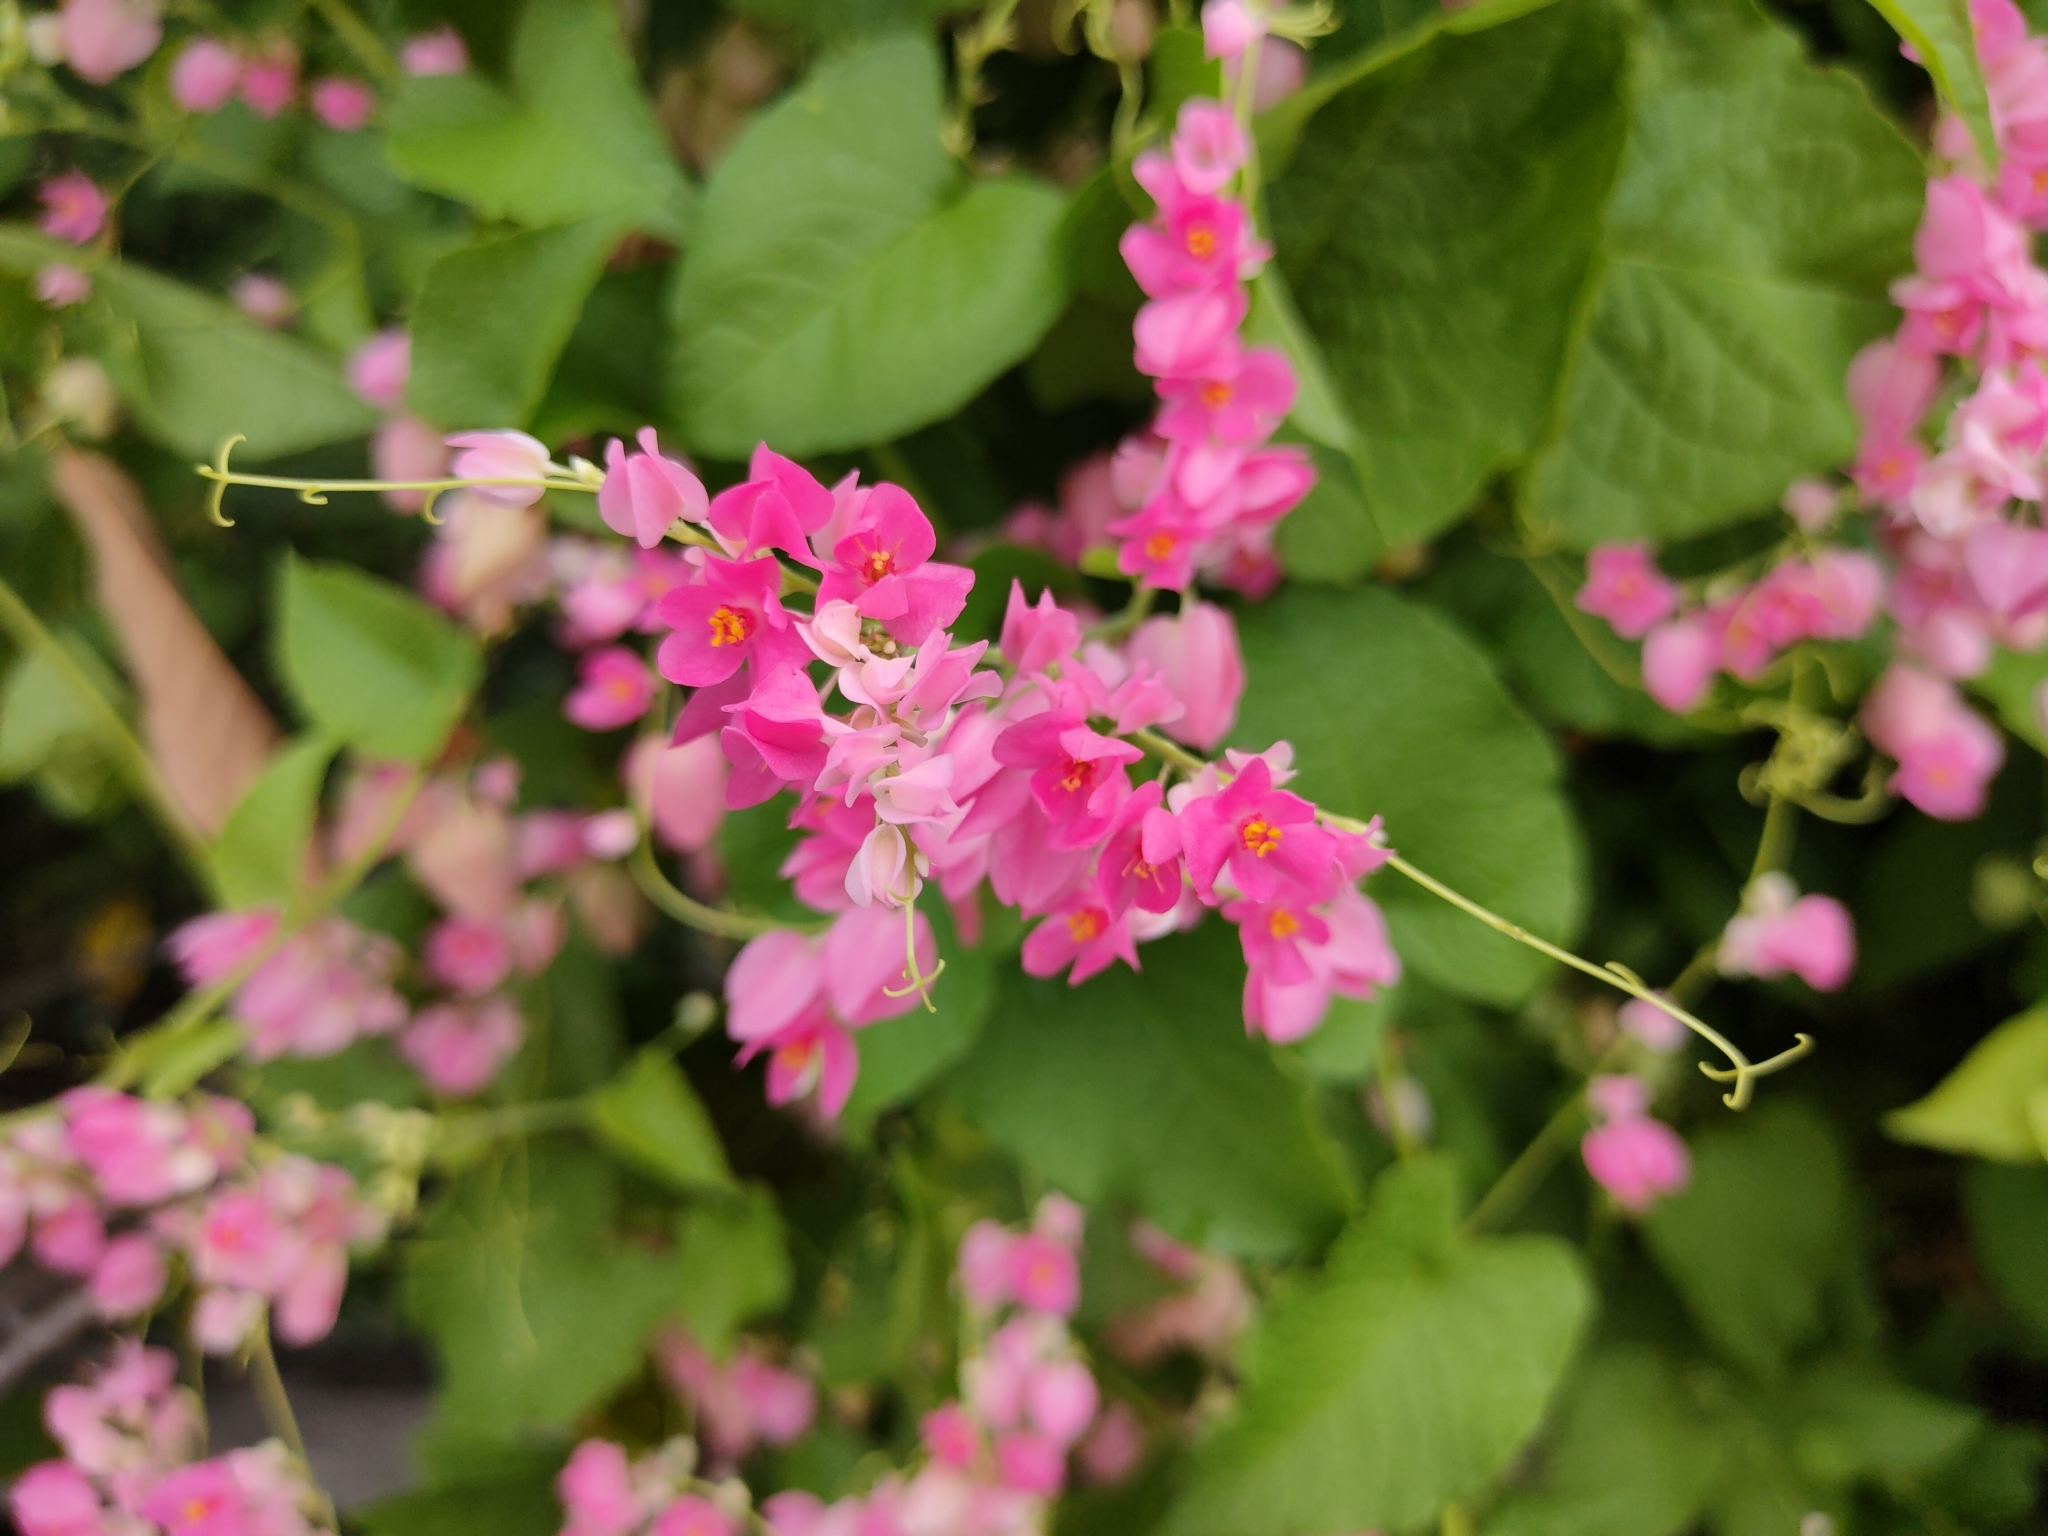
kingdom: Plantae
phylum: Tracheophyta
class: Magnoliopsida
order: Caryophyllales
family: Polygonaceae
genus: Antigonon
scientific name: Antigonon leptopus
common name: Coral vine
